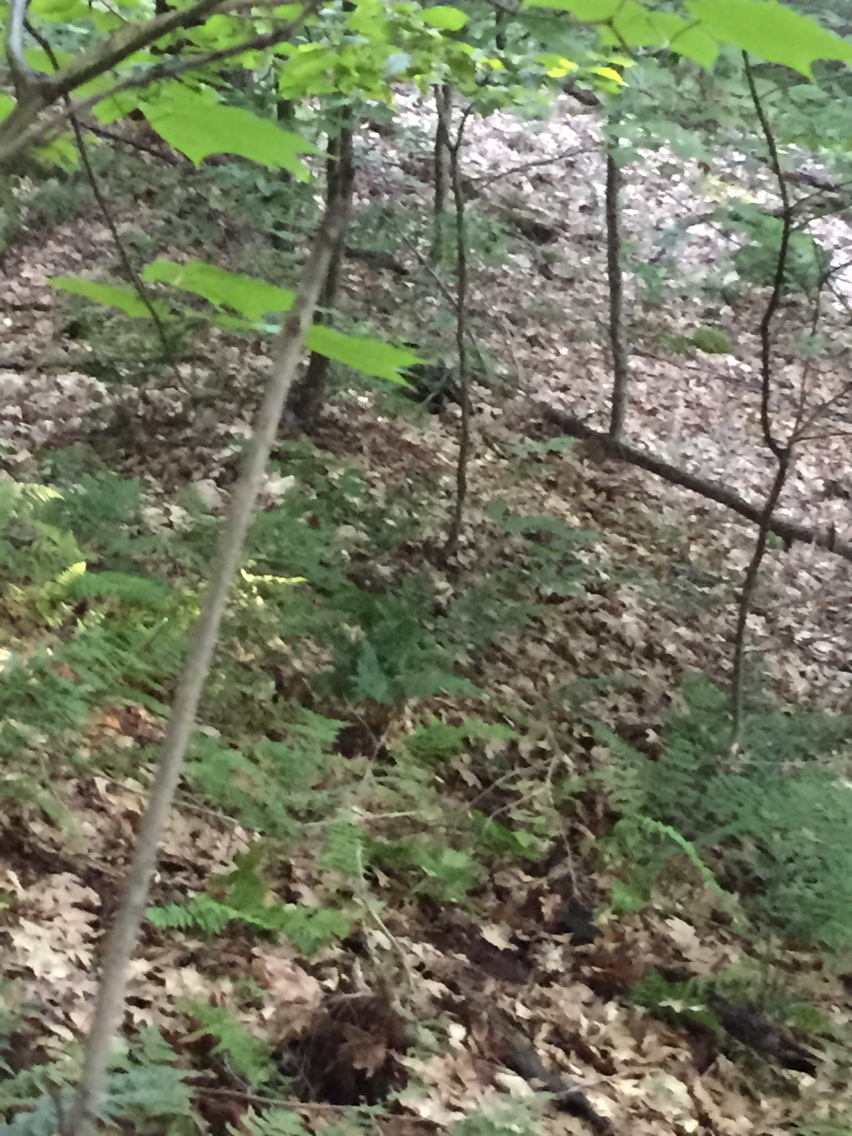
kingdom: Animalia
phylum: Chordata
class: Mammalia
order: Rodentia
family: Erethizontidae
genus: Erethizon
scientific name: Erethizon dorsatus
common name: North american porcupine
